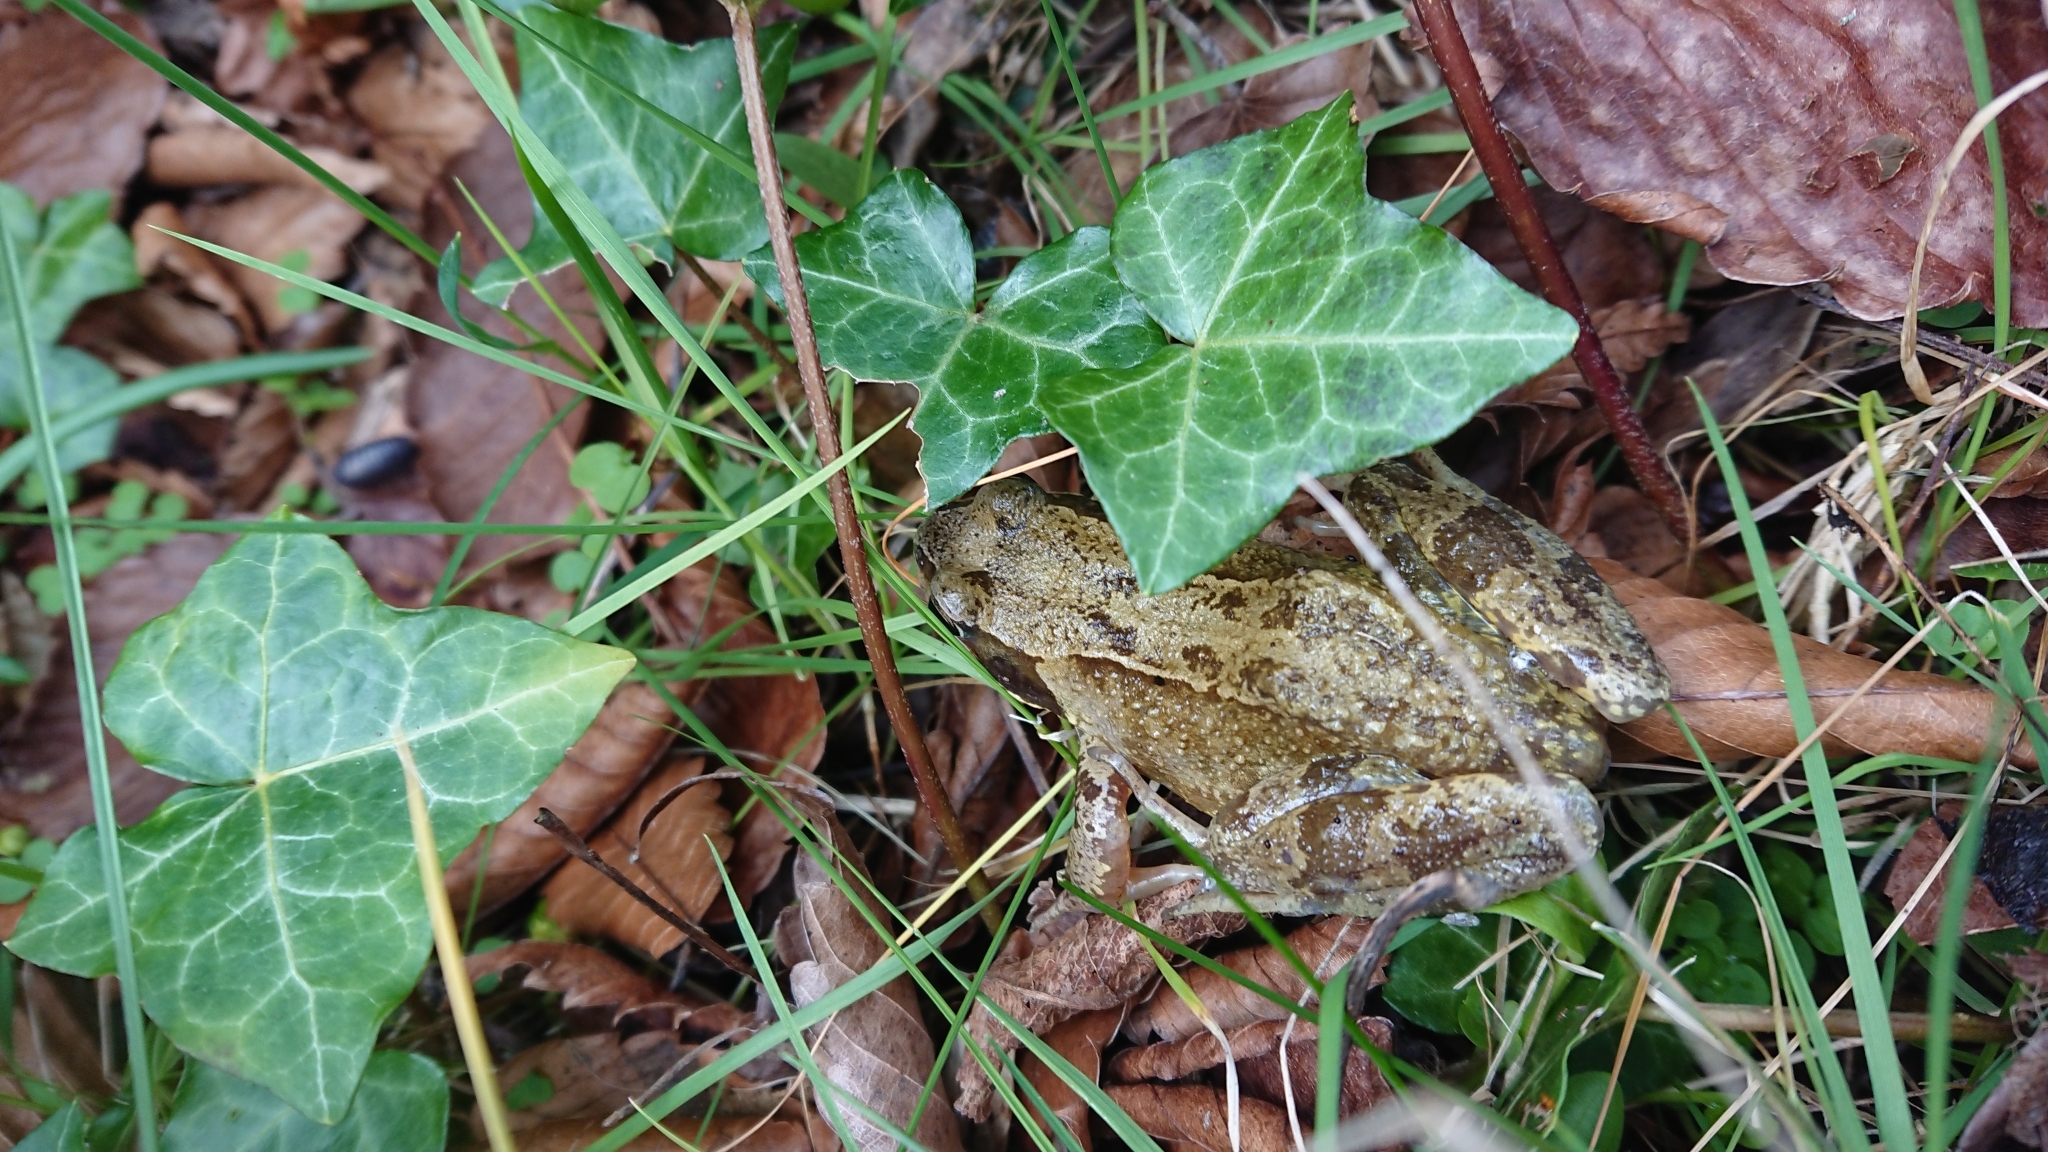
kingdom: Animalia
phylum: Chordata
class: Amphibia
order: Anura
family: Ranidae
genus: Rana
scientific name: Rana temporaria
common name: Common frog
